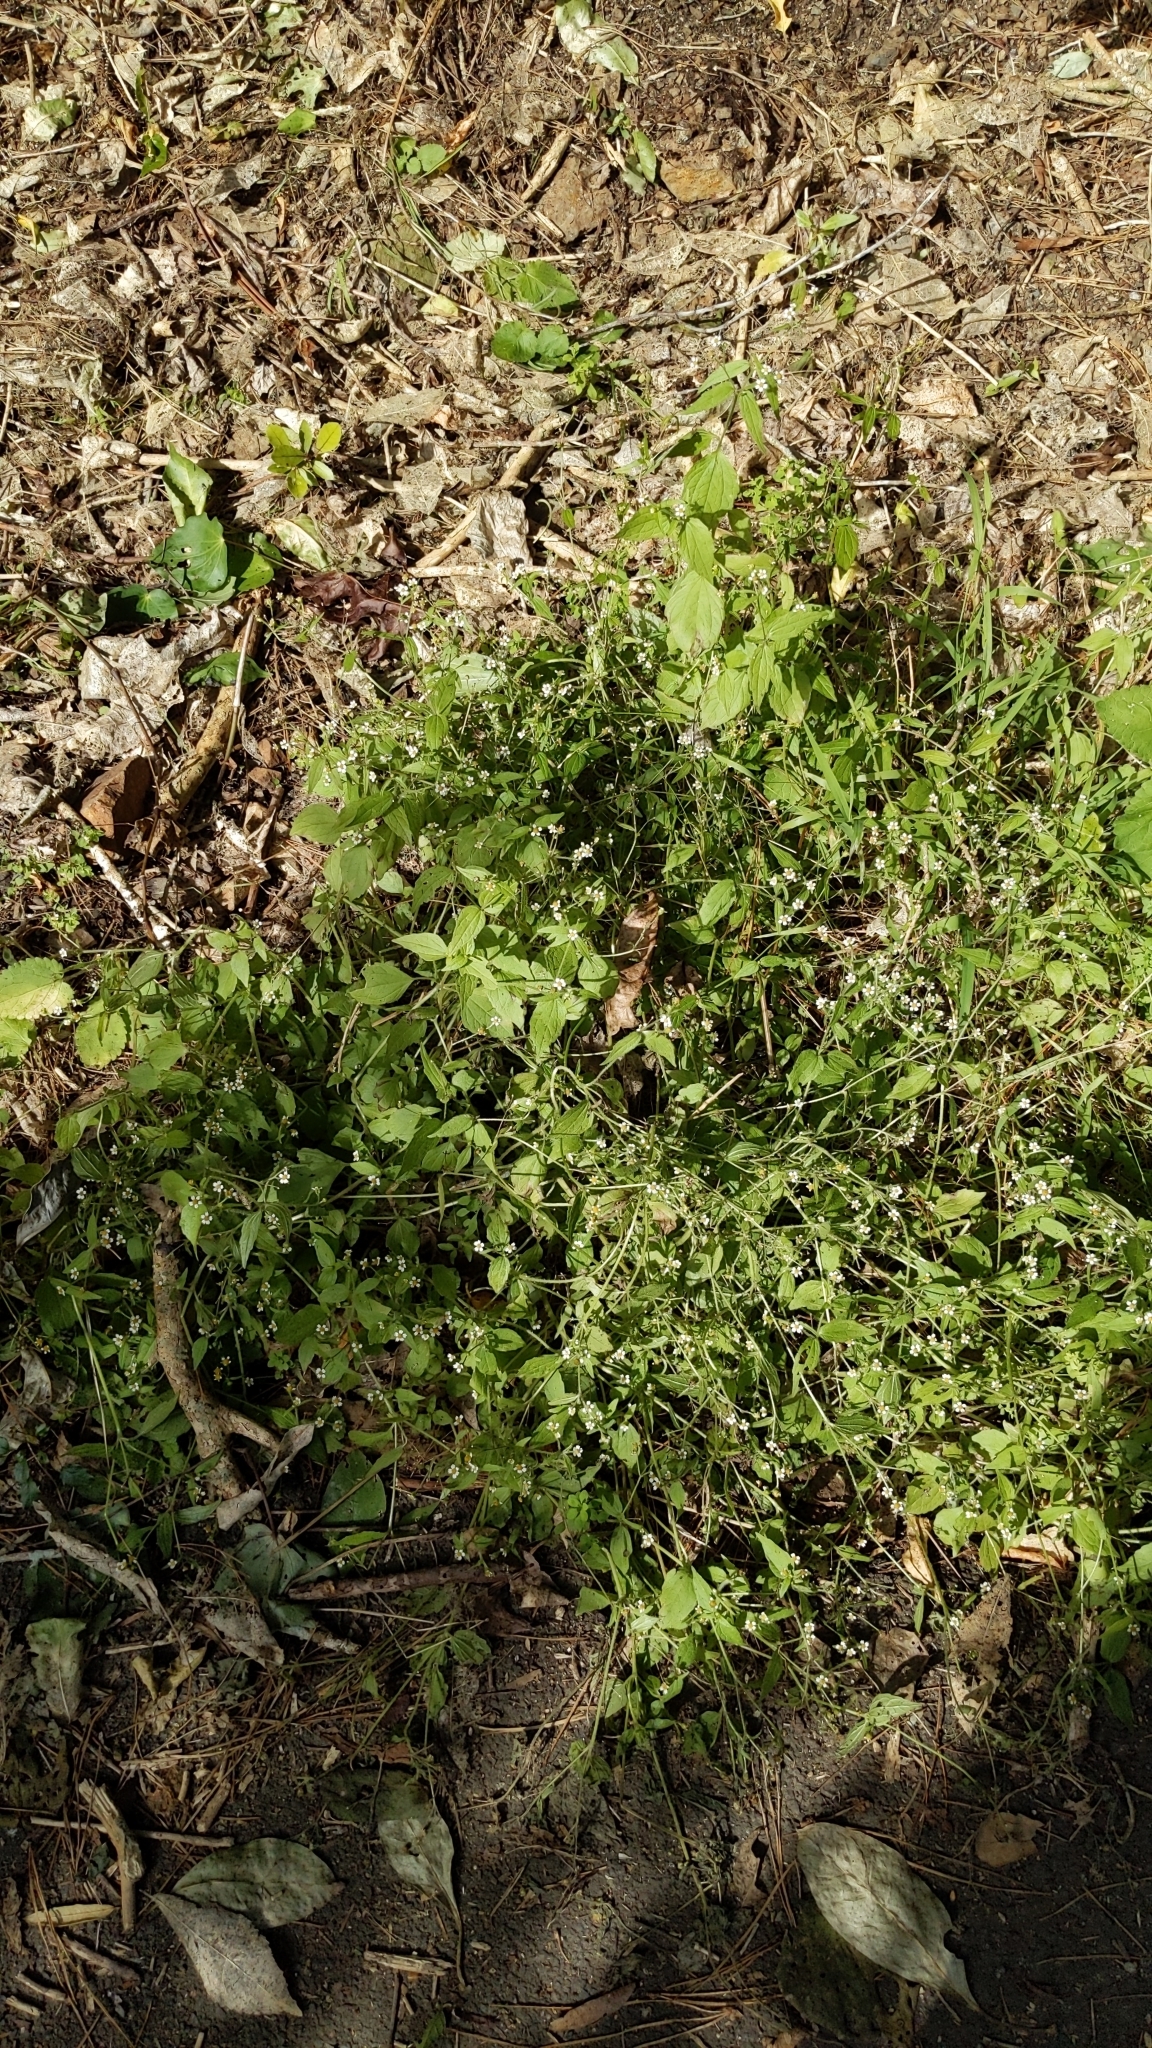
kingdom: Plantae
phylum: Tracheophyta
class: Magnoliopsida
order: Asterales
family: Asteraceae
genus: Galinsoga
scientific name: Galinsoga quadriradiata
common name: Shaggy soldier
